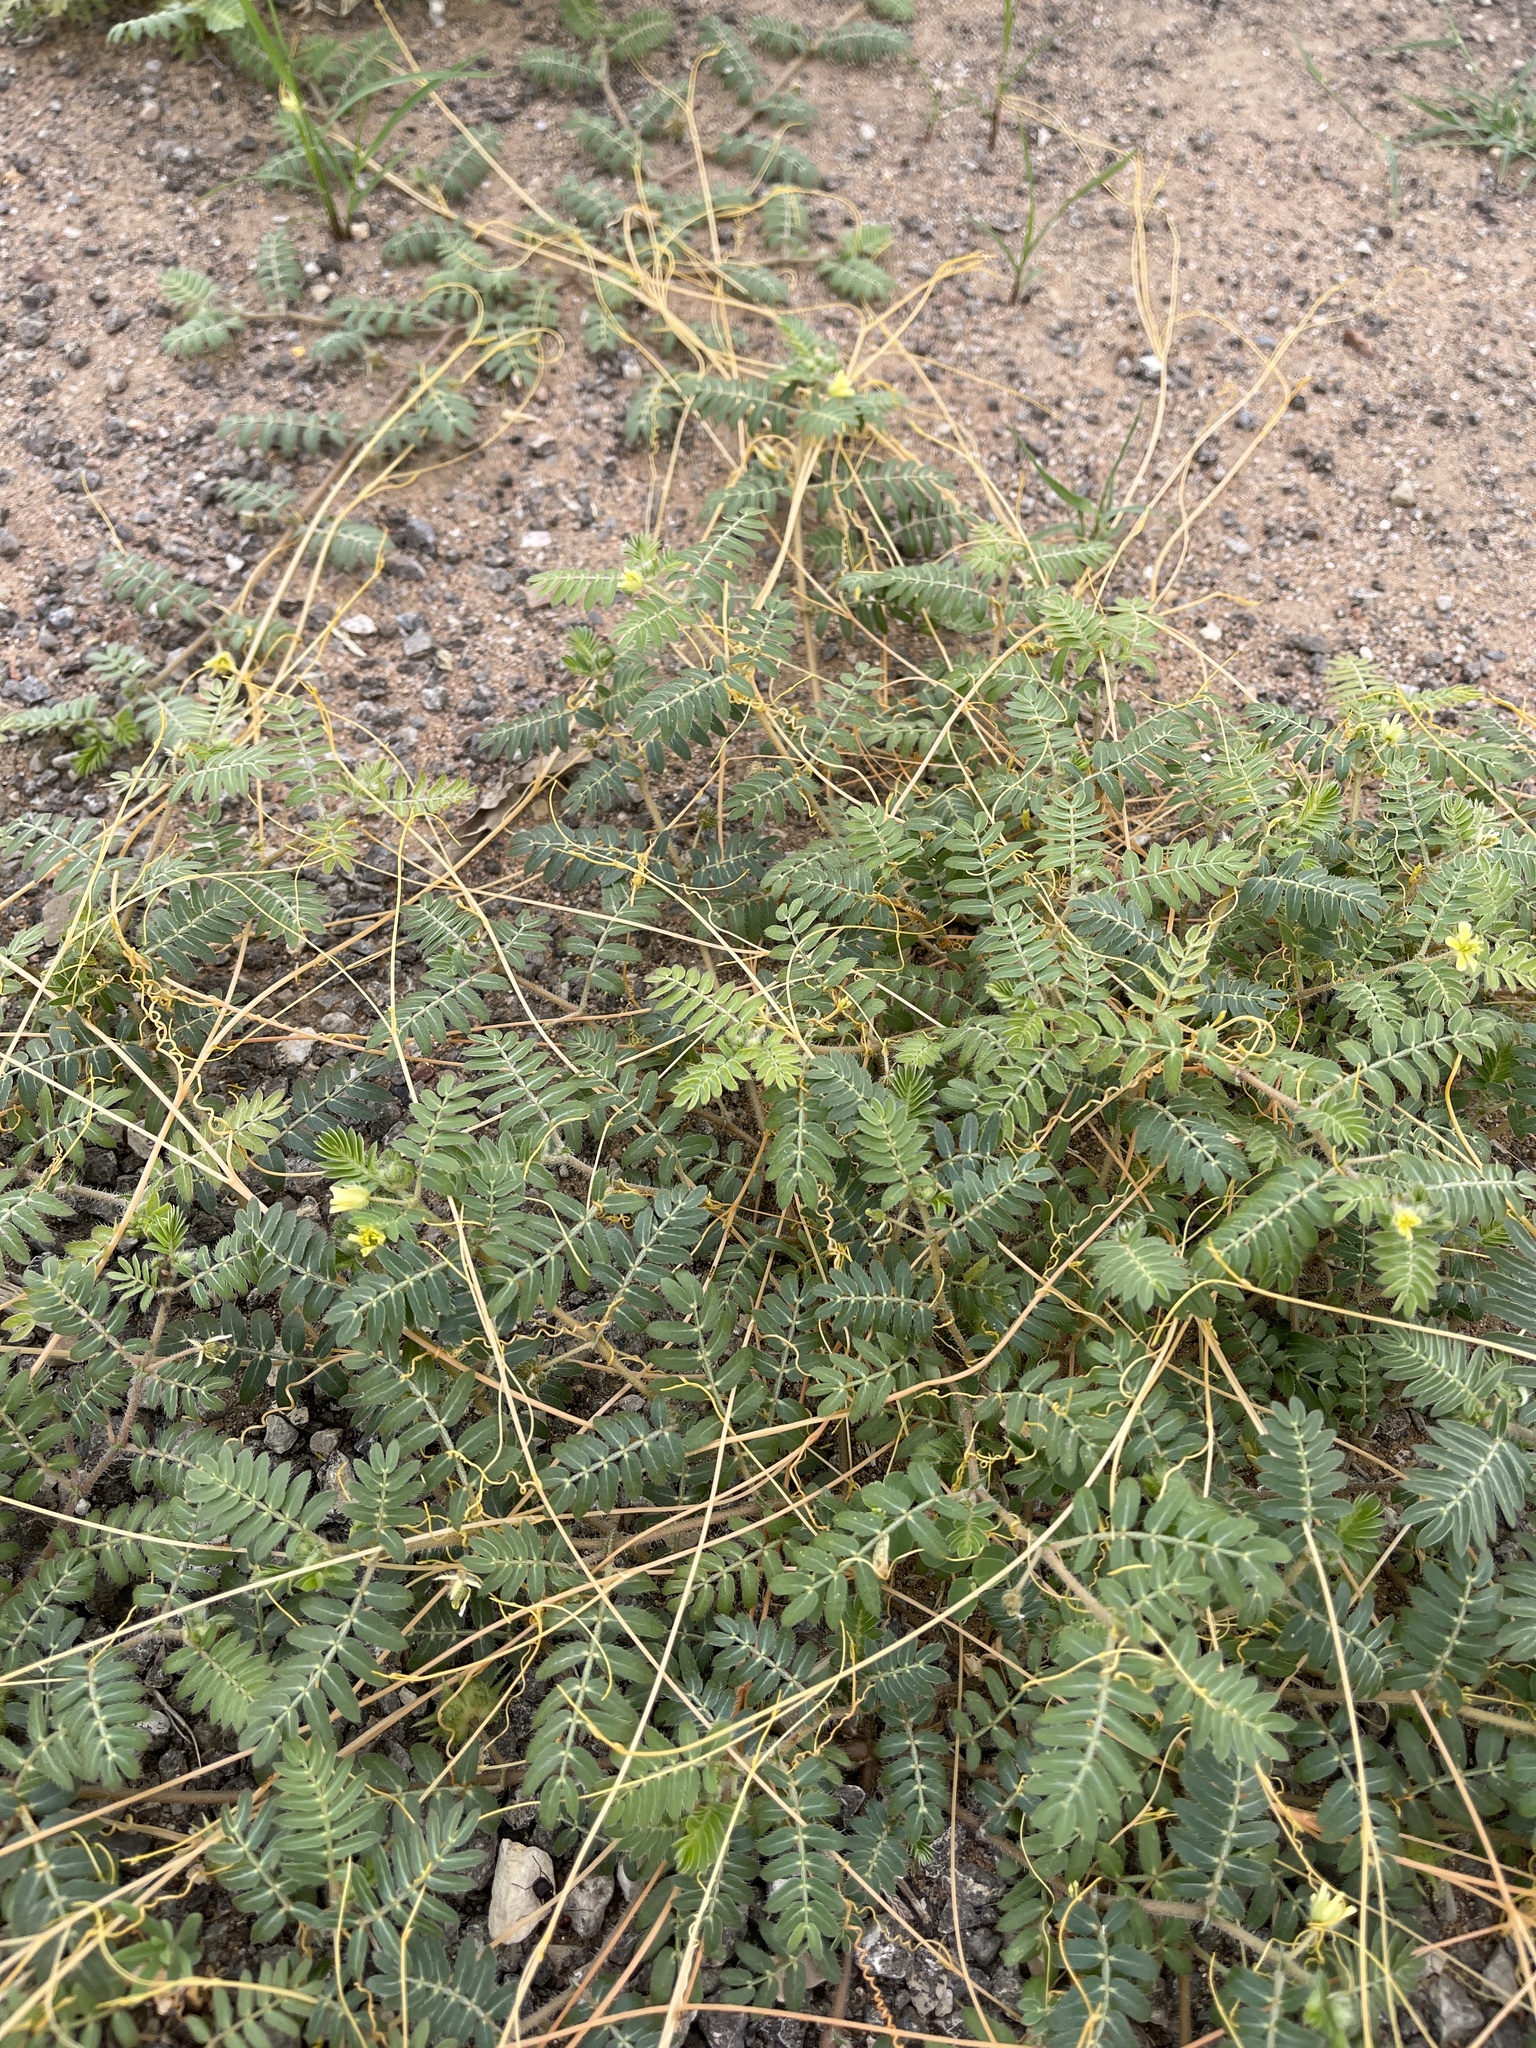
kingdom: Plantae
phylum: Tracheophyta
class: Magnoliopsida
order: Zygophyllales
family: Zygophyllaceae
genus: Tribulus
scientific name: Tribulus terrestris
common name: Puncturevine
